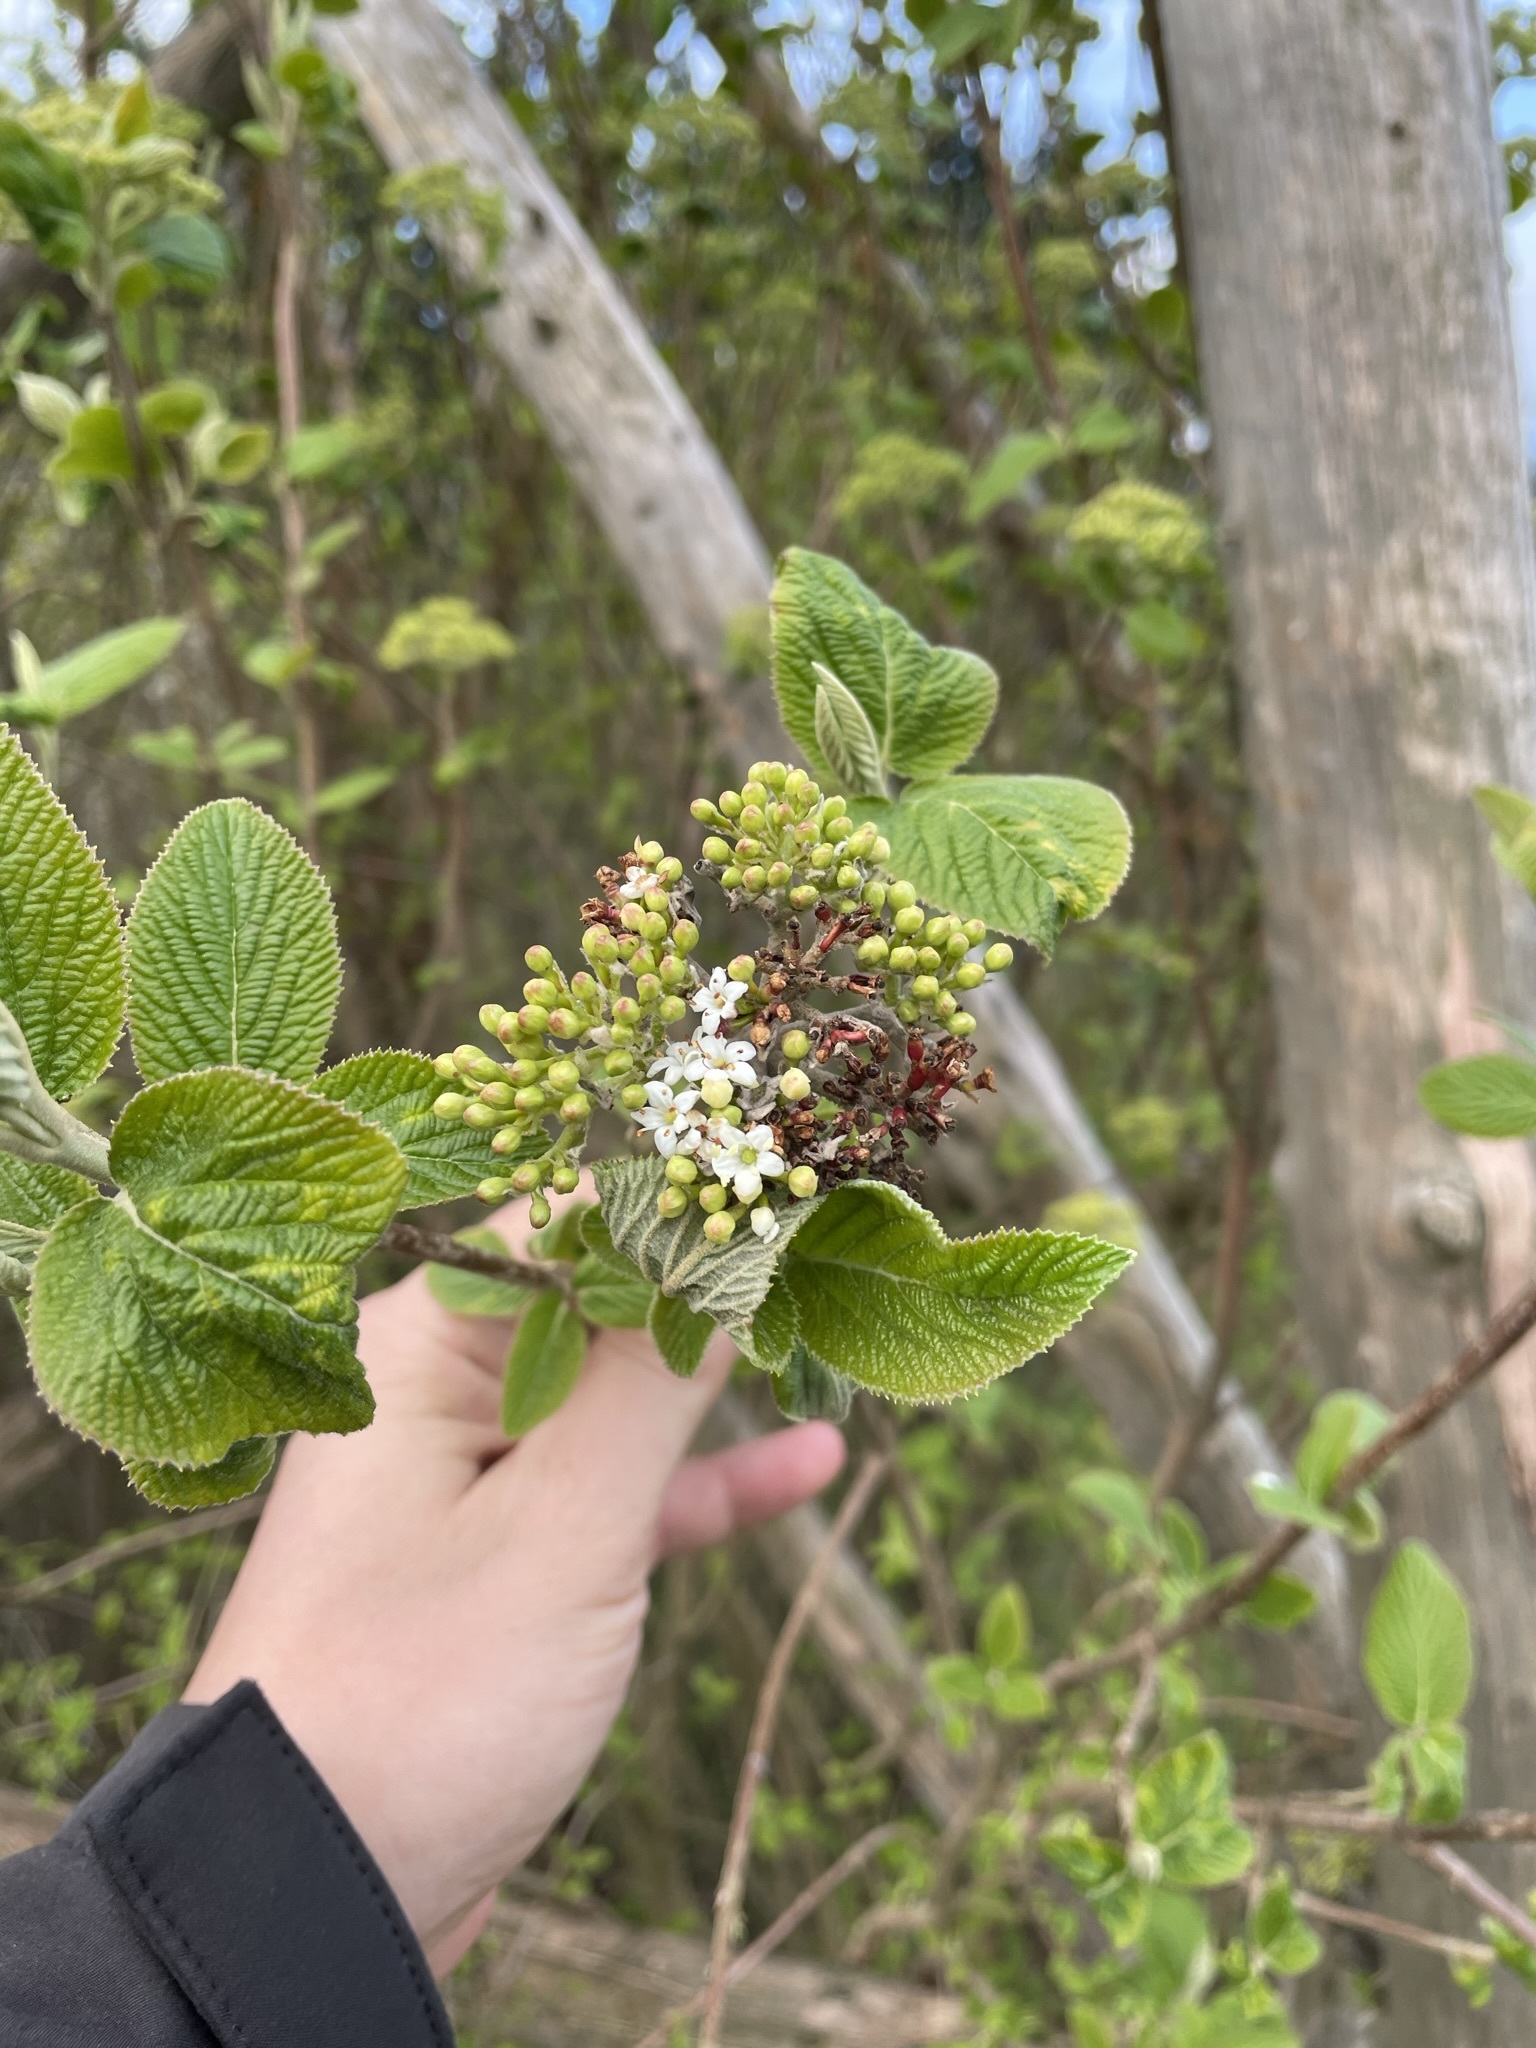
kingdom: Plantae
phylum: Tracheophyta
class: Magnoliopsida
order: Dipsacales
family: Viburnaceae
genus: Viburnum
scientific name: Viburnum lantana
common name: Wayfaring tree
